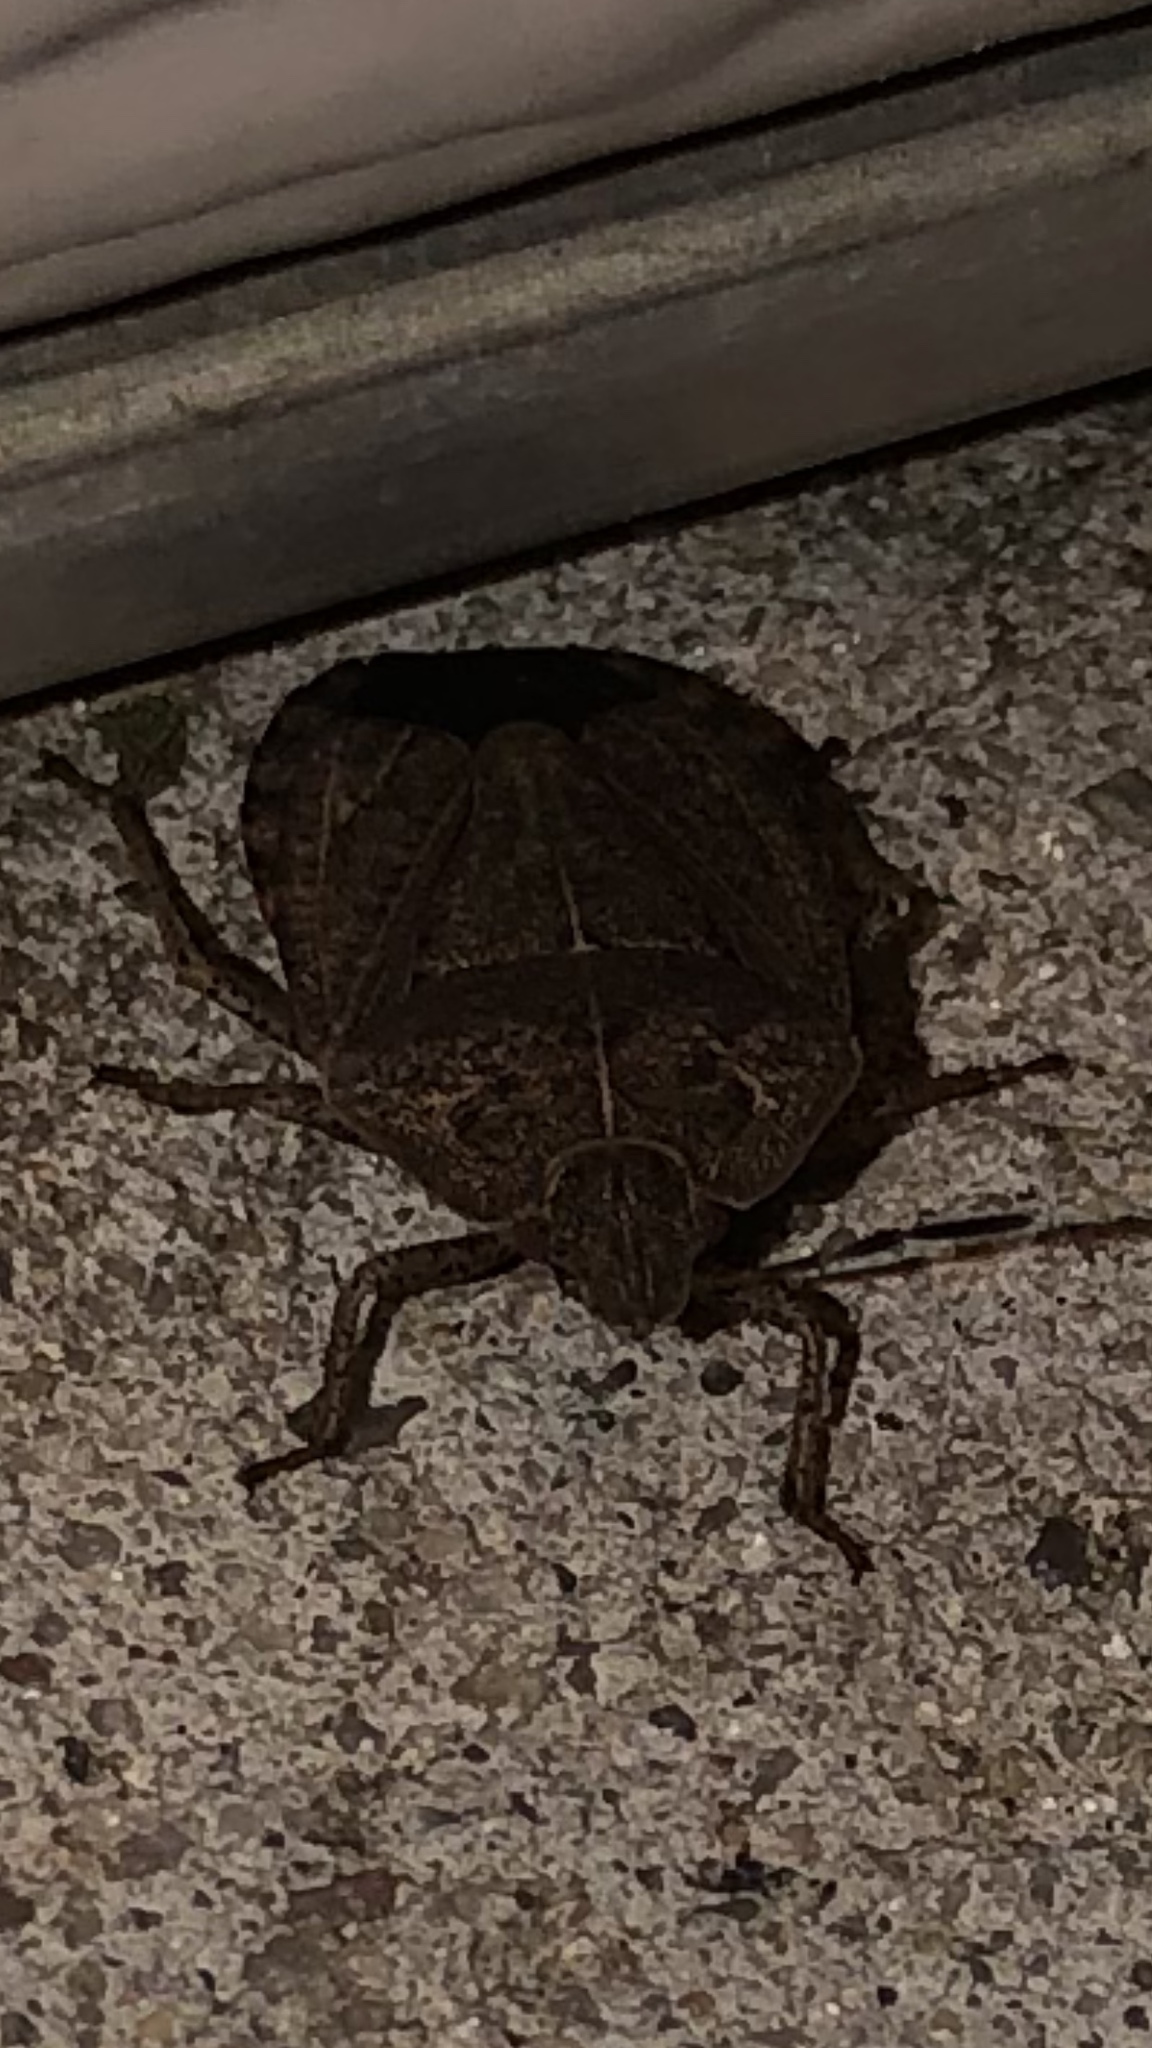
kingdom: Animalia
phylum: Arthropoda
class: Insecta
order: Hemiptera
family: Pentatomidae
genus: Menecles
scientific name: Menecles insertus
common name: Elf shoe stink bug
